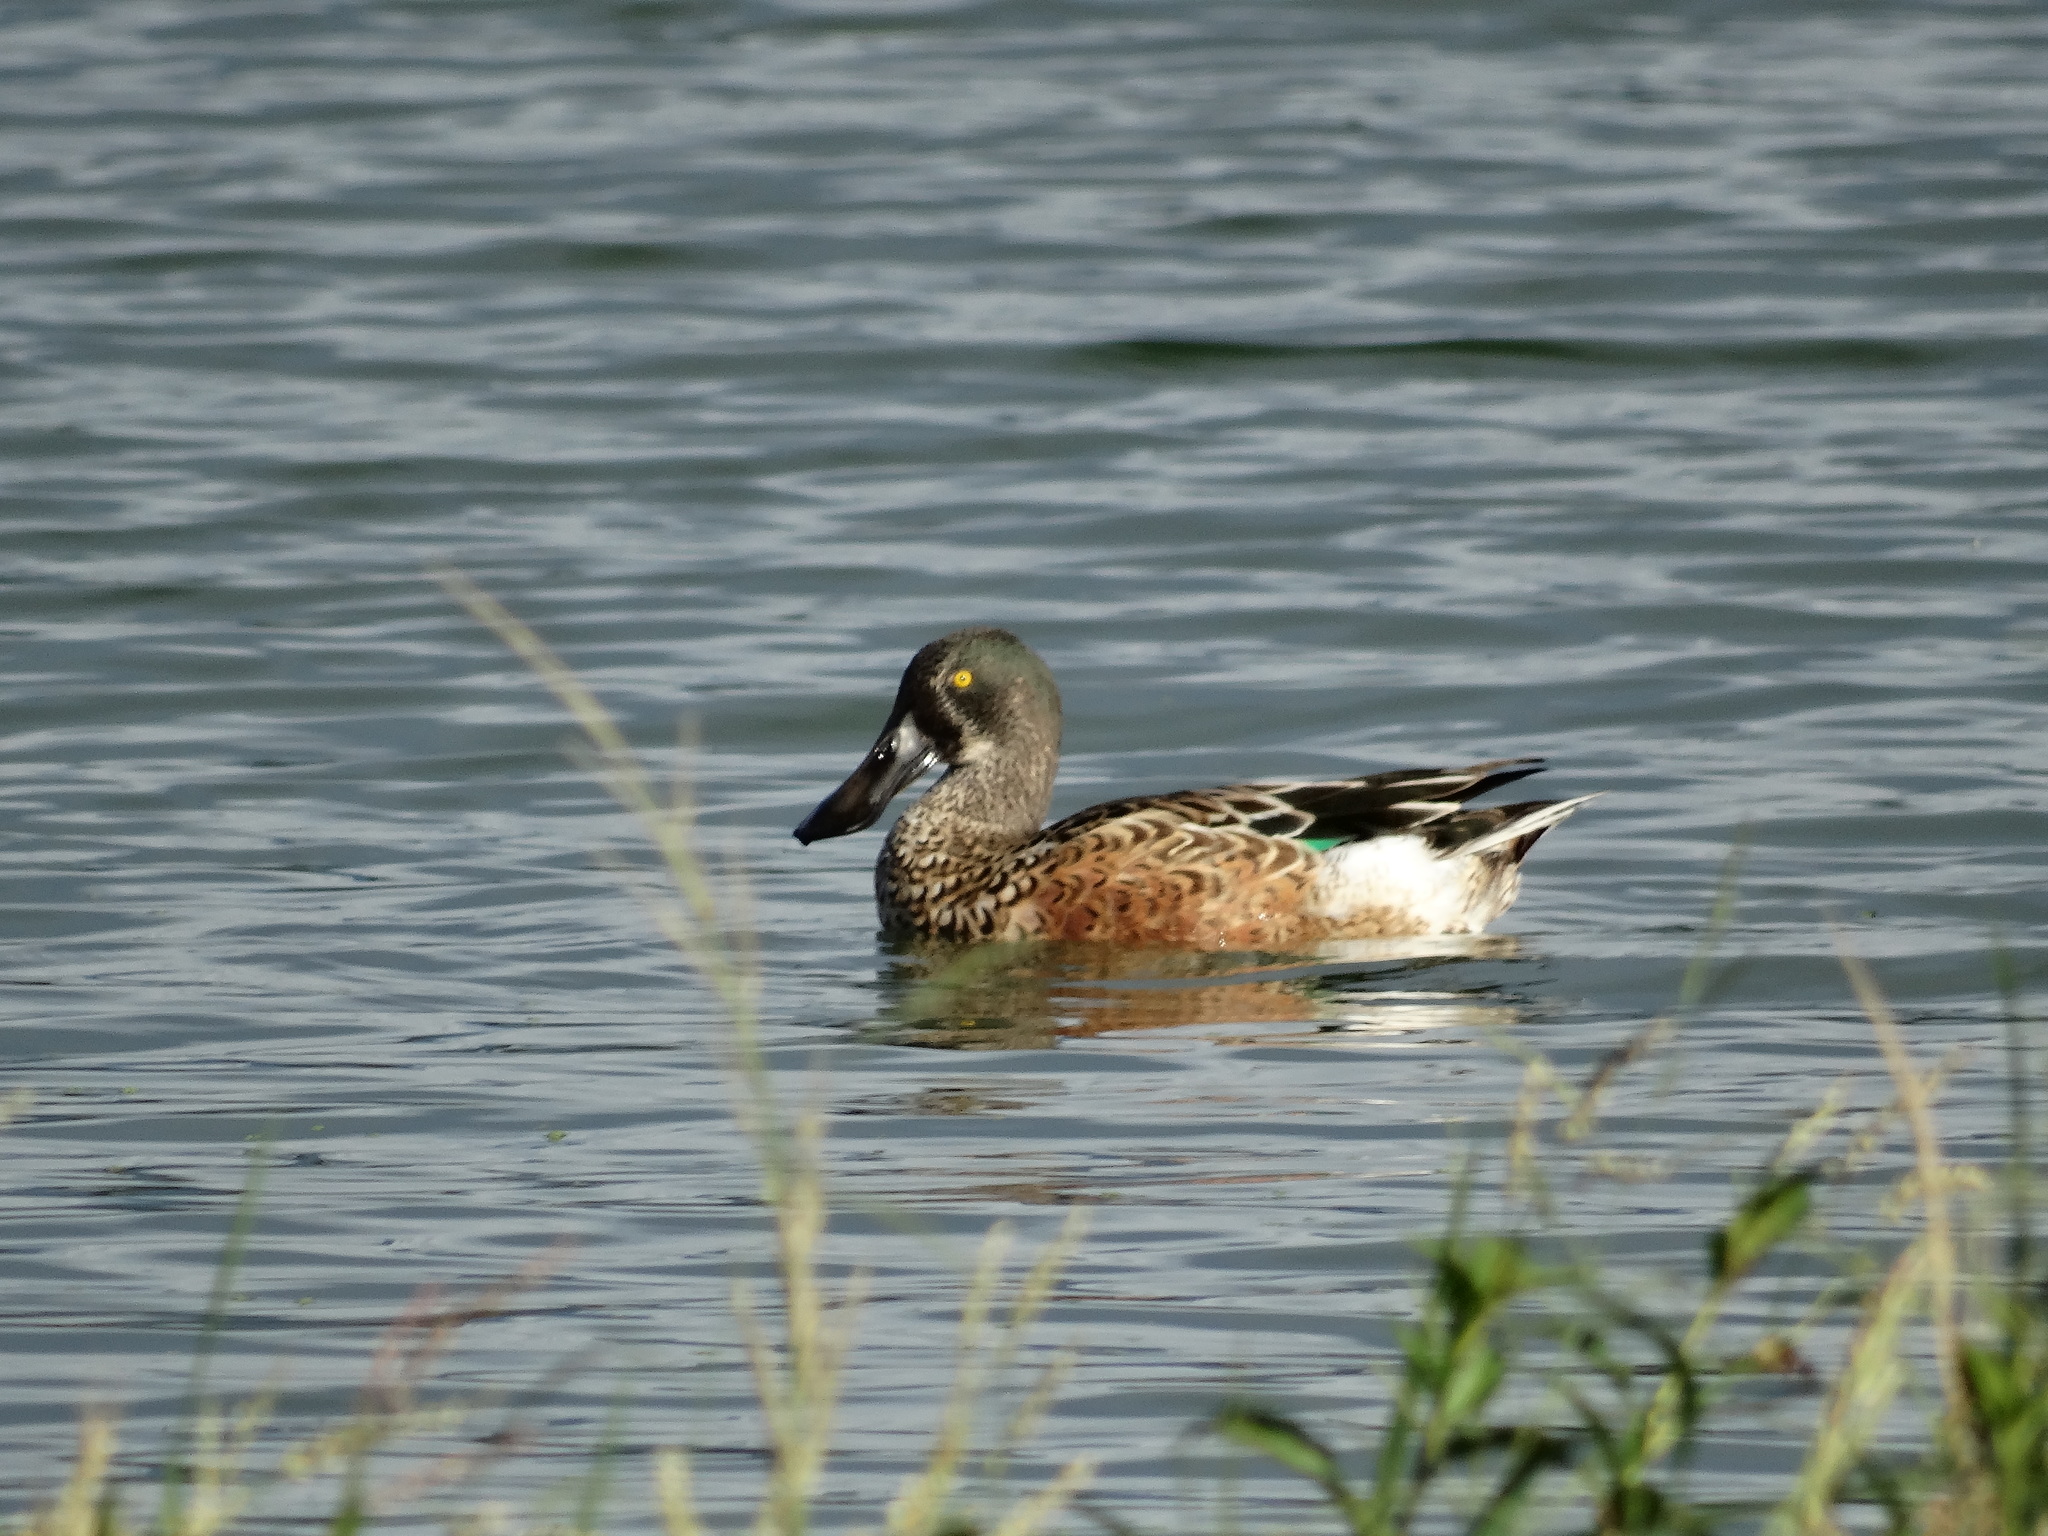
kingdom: Animalia
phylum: Chordata
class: Aves
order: Anseriformes
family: Anatidae
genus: Spatula
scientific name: Spatula clypeata
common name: Northern shoveler
